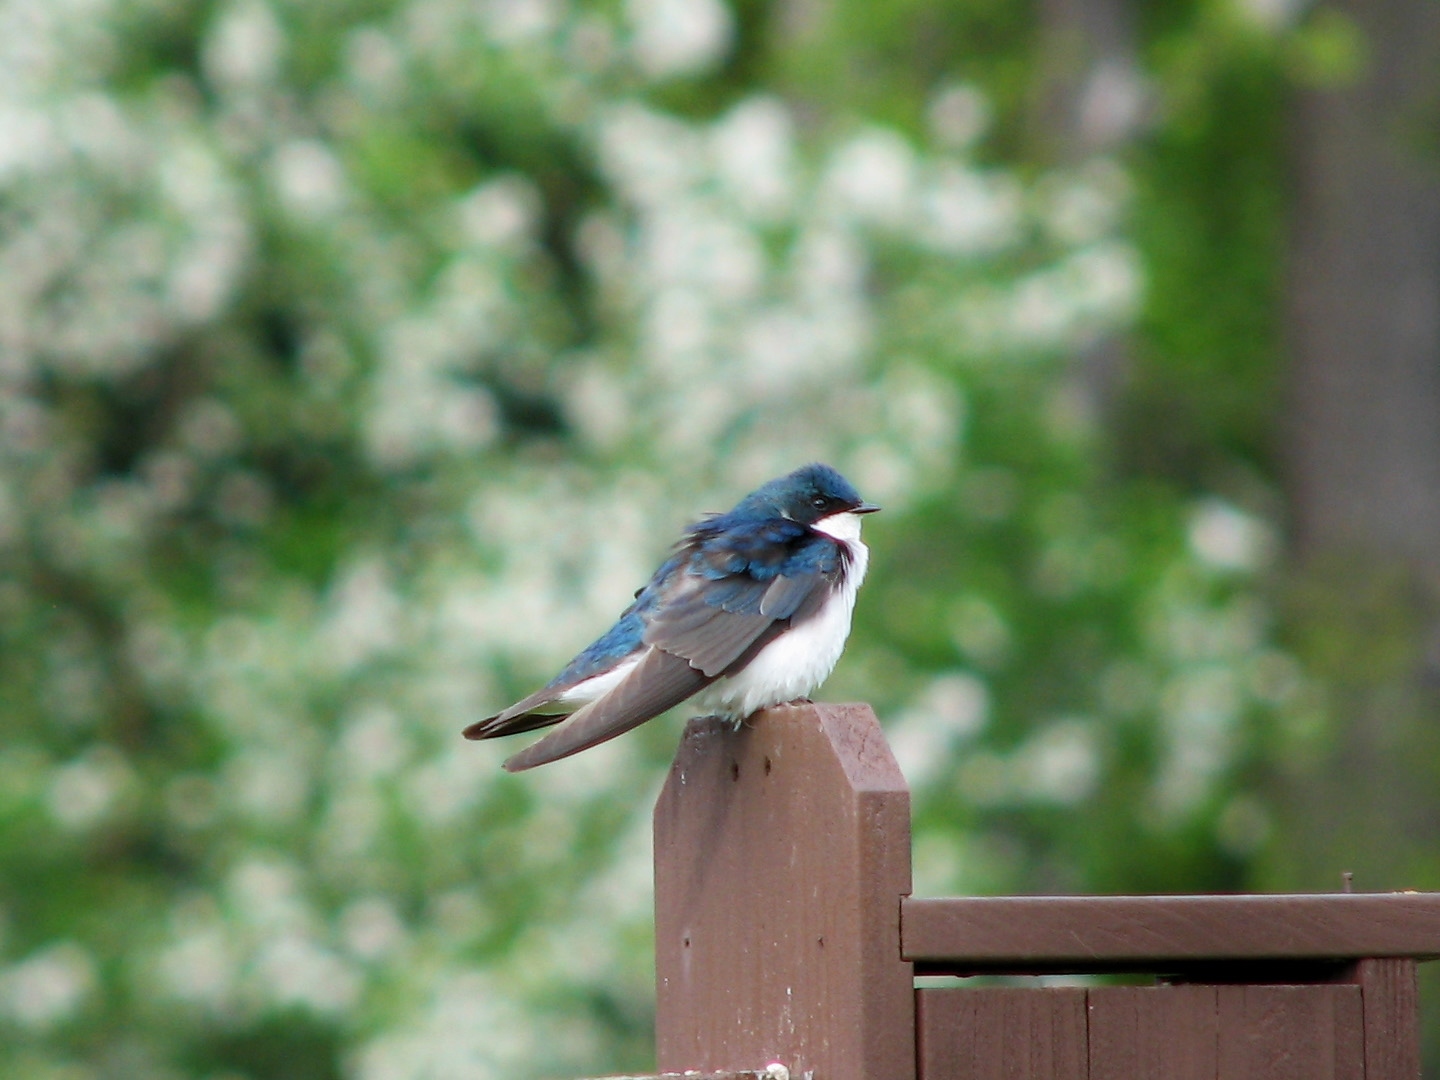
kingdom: Animalia
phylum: Chordata
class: Aves
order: Passeriformes
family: Hirundinidae
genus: Tachycineta
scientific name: Tachycineta bicolor
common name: Tree swallow
